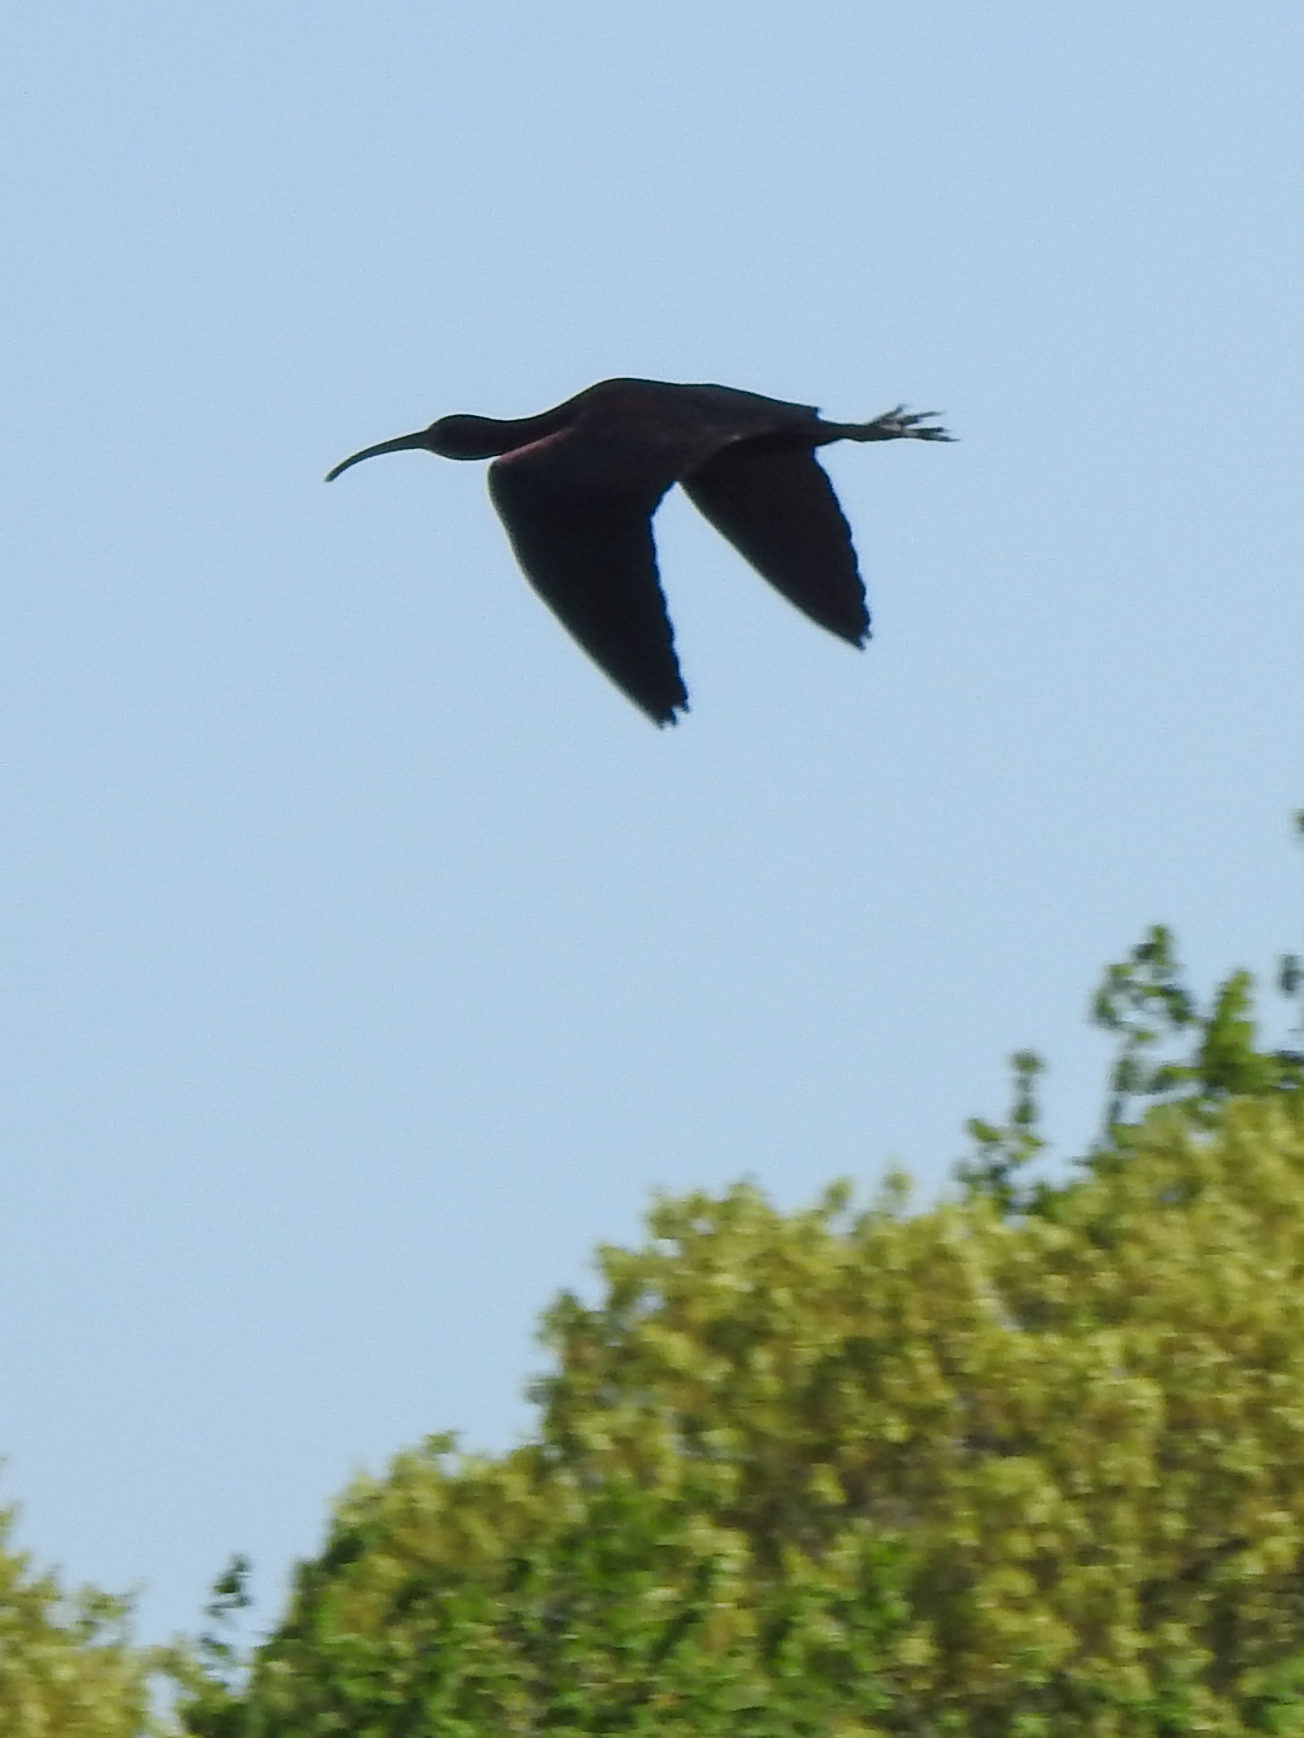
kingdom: Animalia
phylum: Chordata
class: Aves
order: Pelecaniformes
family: Threskiornithidae
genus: Plegadis
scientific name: Plegadis falcinellus
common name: Glossy ibis
